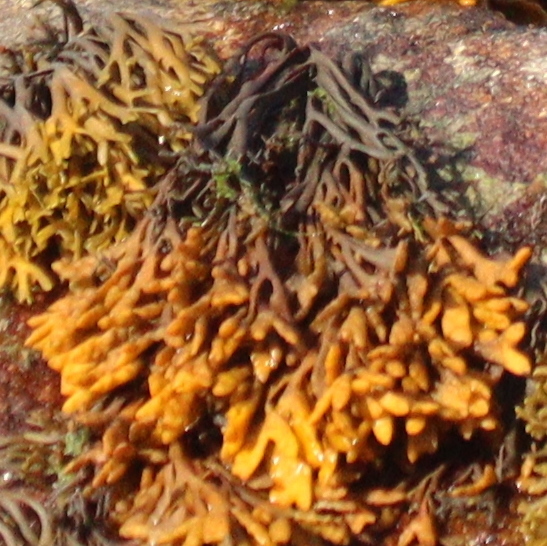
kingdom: Chromista
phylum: Ochrophyta
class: Phaeophyceae
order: Fucales
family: Fucaceae
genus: Pelvetia
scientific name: Pelvetia canaliculata
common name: Channelled wrack
